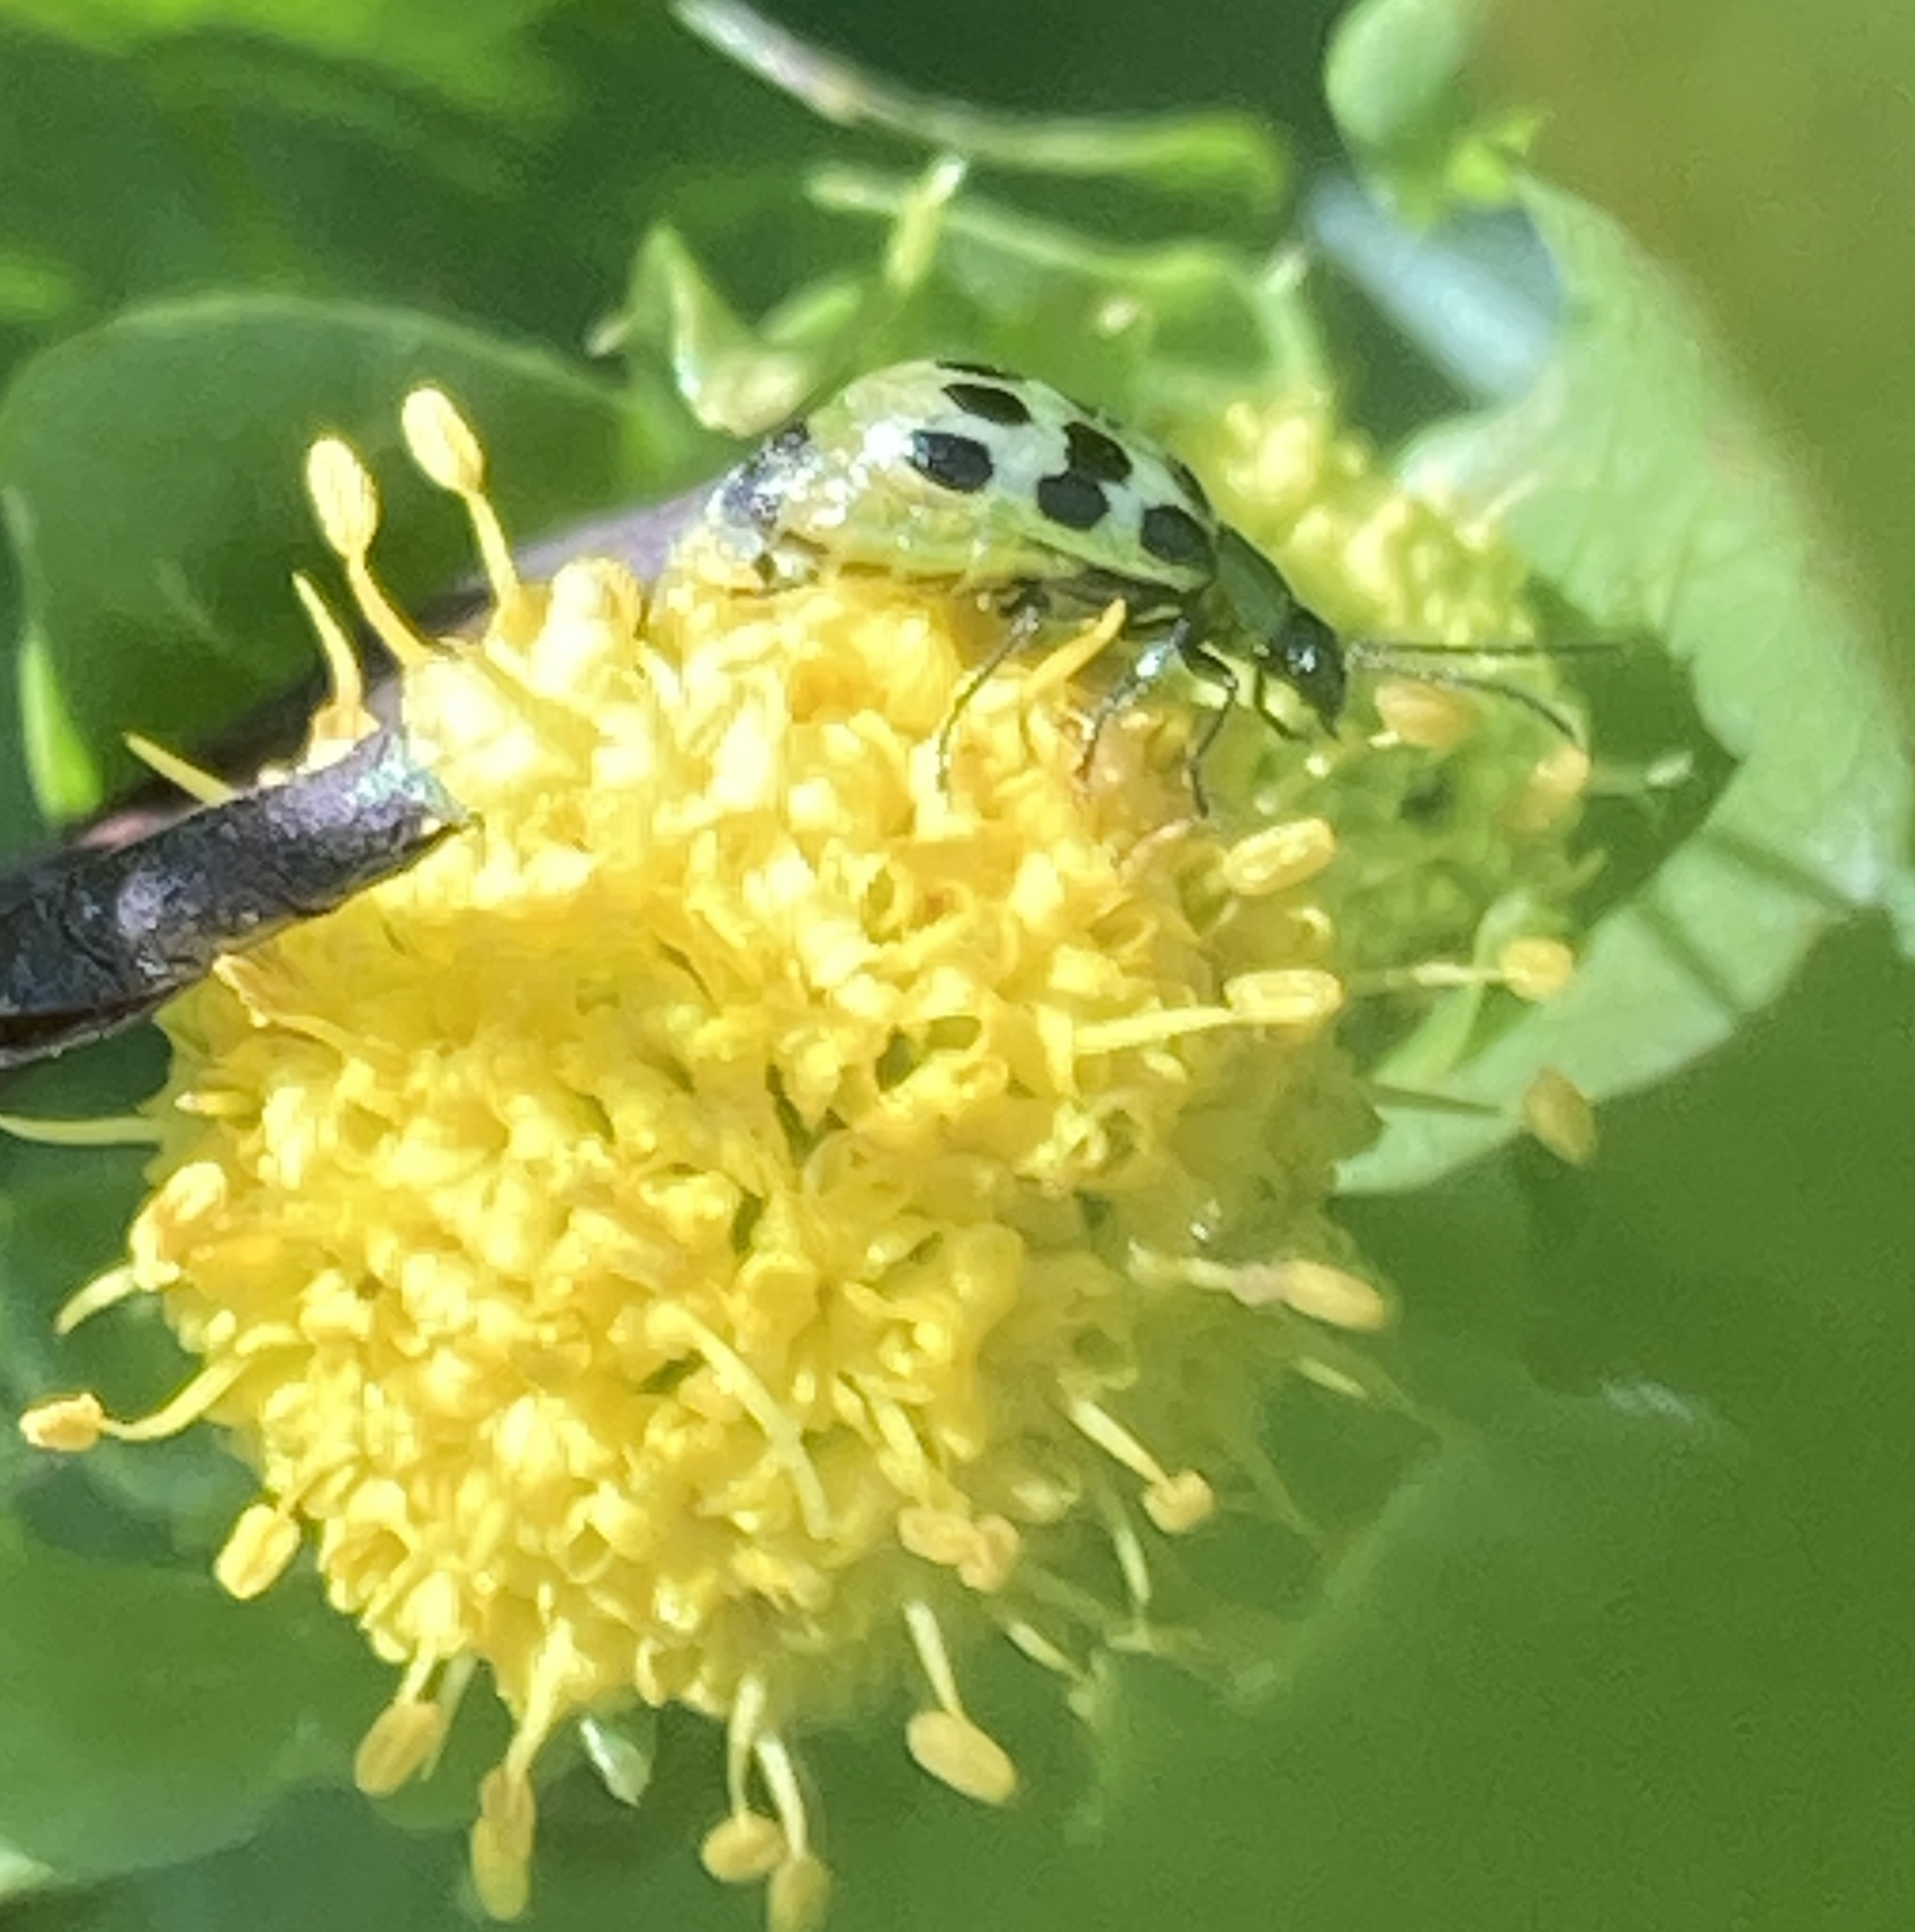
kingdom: Animalia
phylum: Arthropoda
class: Insecta
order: Coleoptera
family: Chrysomelidae
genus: Diabrotica
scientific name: Diabrotica undecimpunctata
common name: Spotted cucumber beetle
